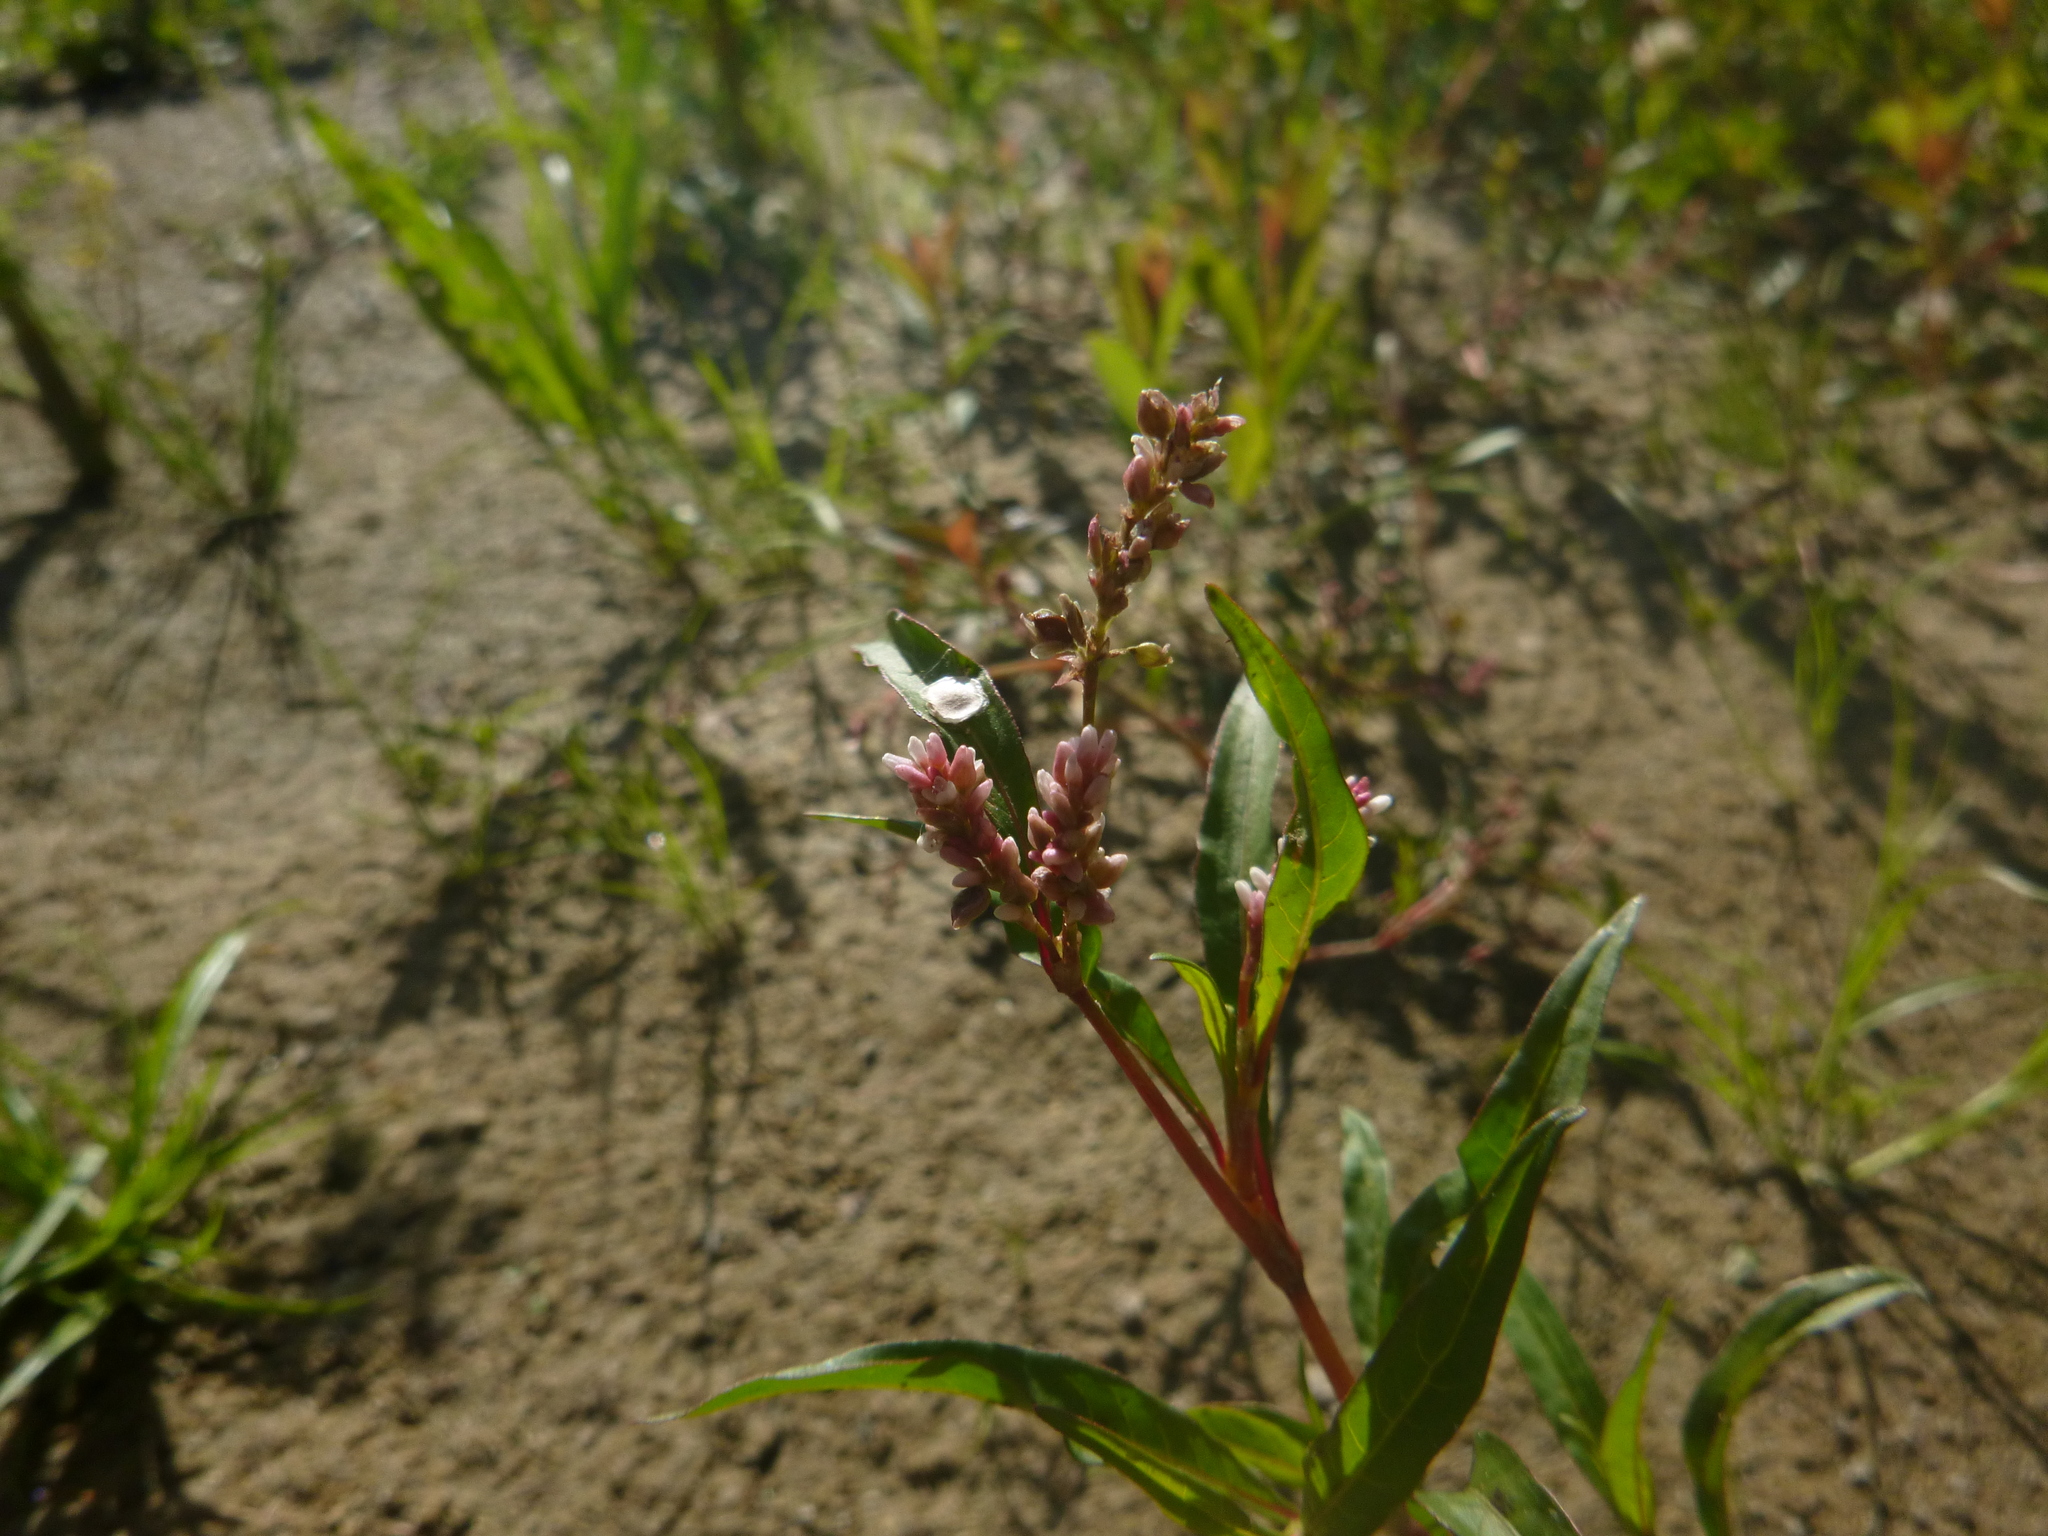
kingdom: Plantae
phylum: Tracheophyta
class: Magnoliopsida
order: Caryophyllales
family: Polygonaceae
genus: Persicaria
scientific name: Persicaria lapathifolia
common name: Curlytop knotweed
